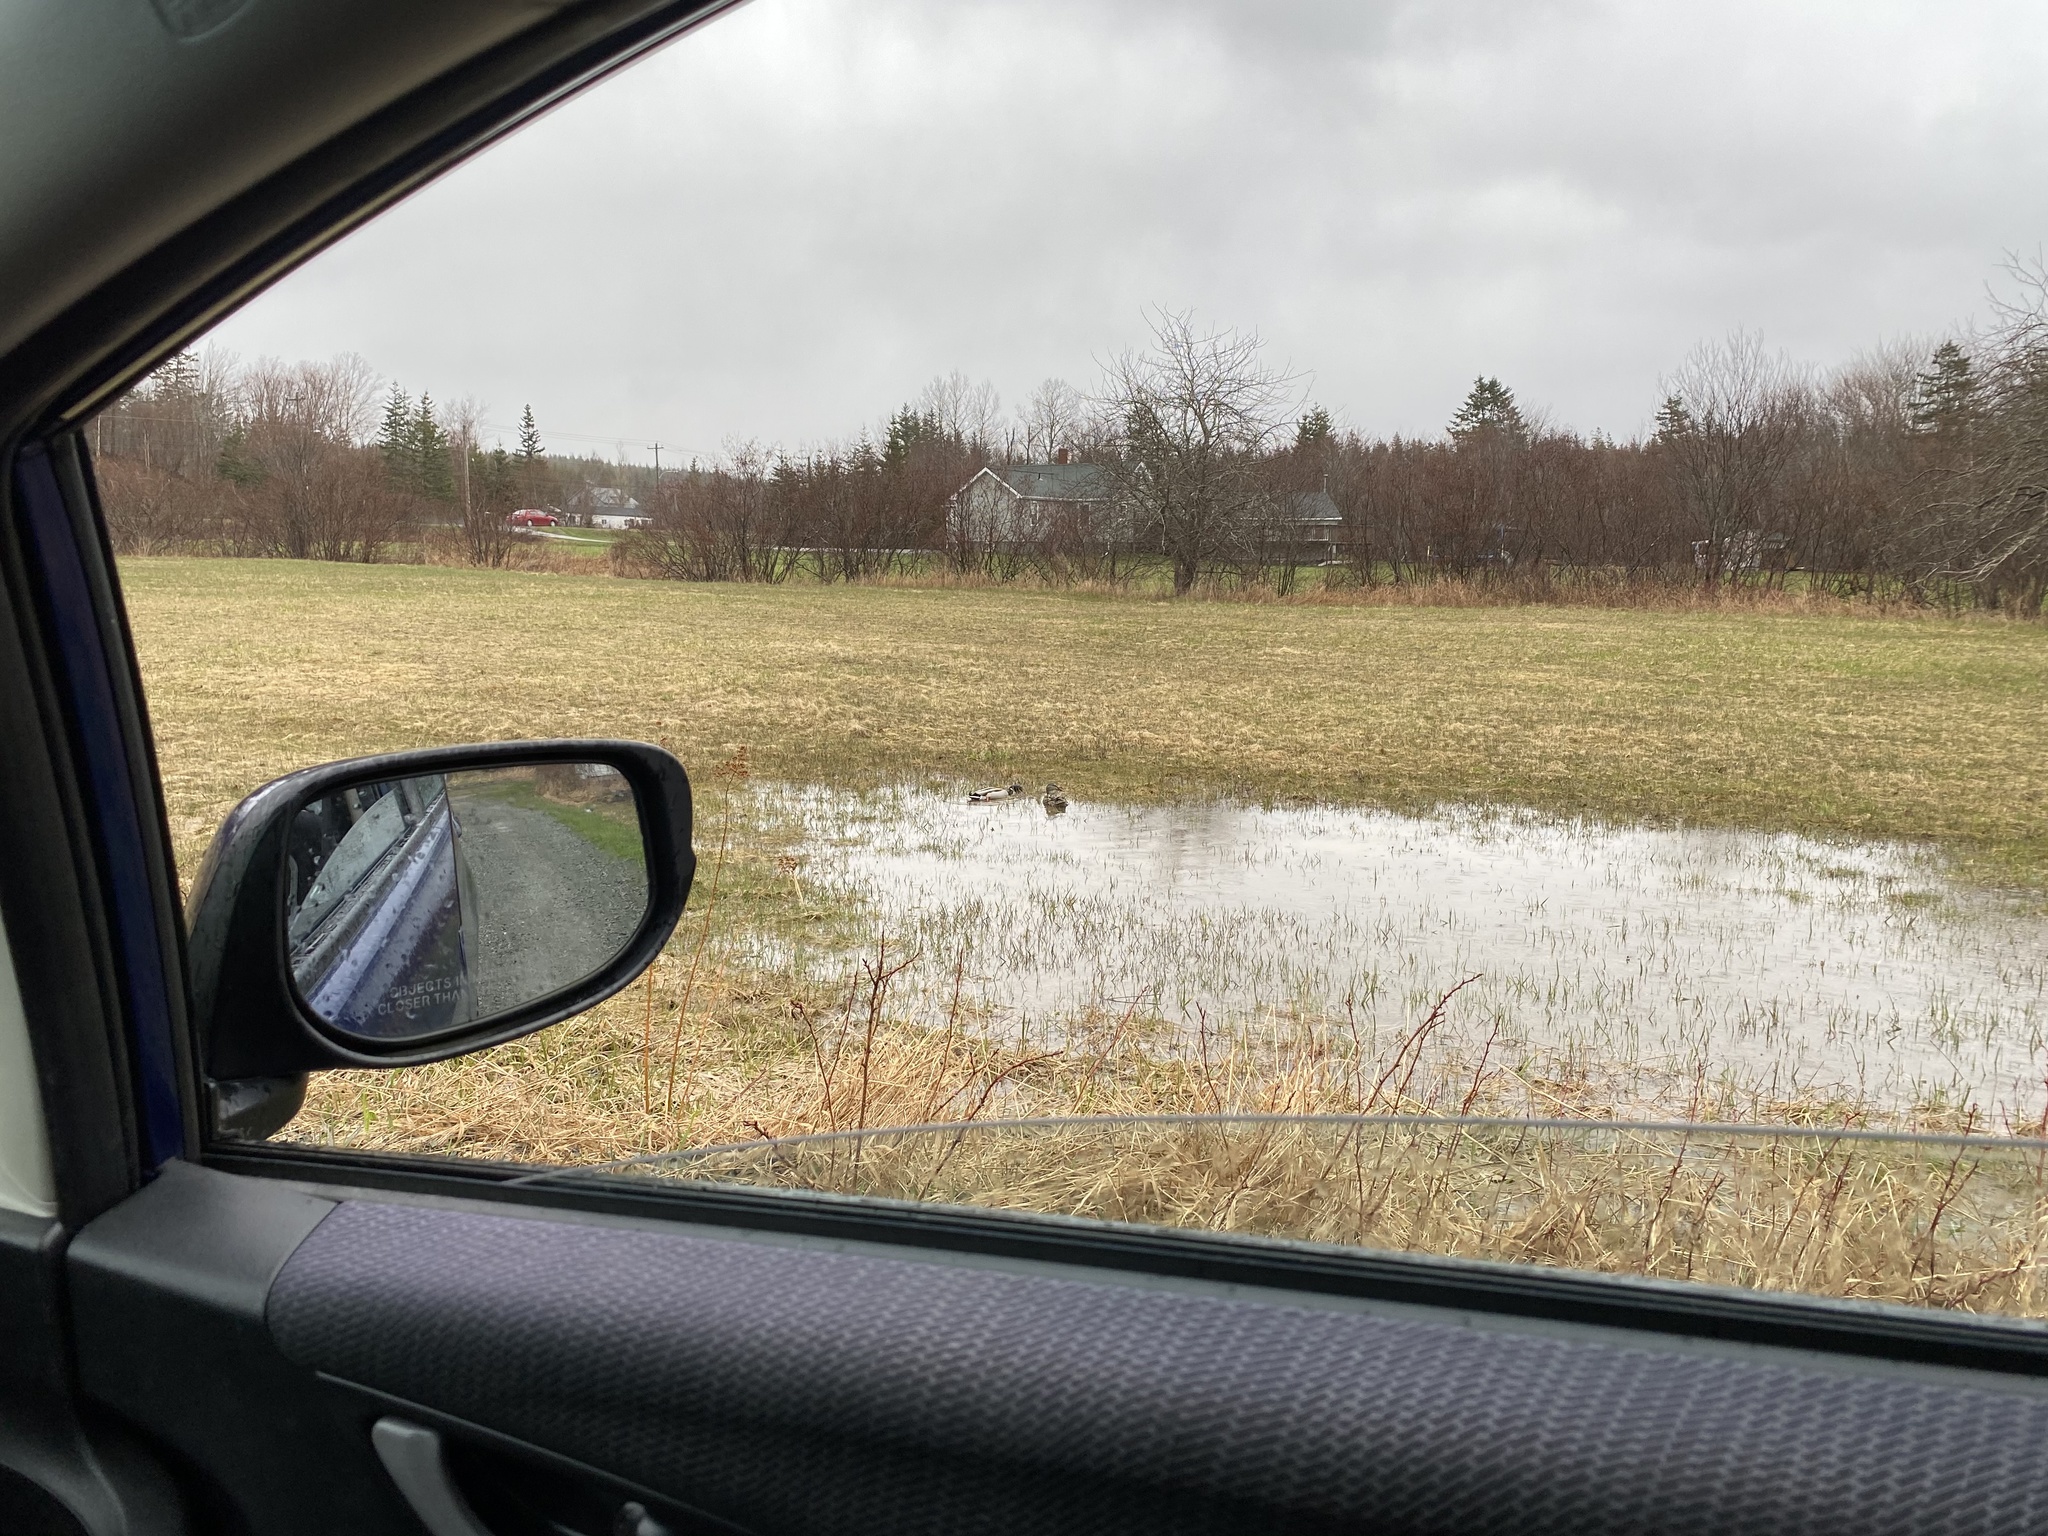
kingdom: Animalia
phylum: Chordata
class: Aves
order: Anseriformes
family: Anatidae
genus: Anas
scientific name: Anas platyrhynchos
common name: Mallard
